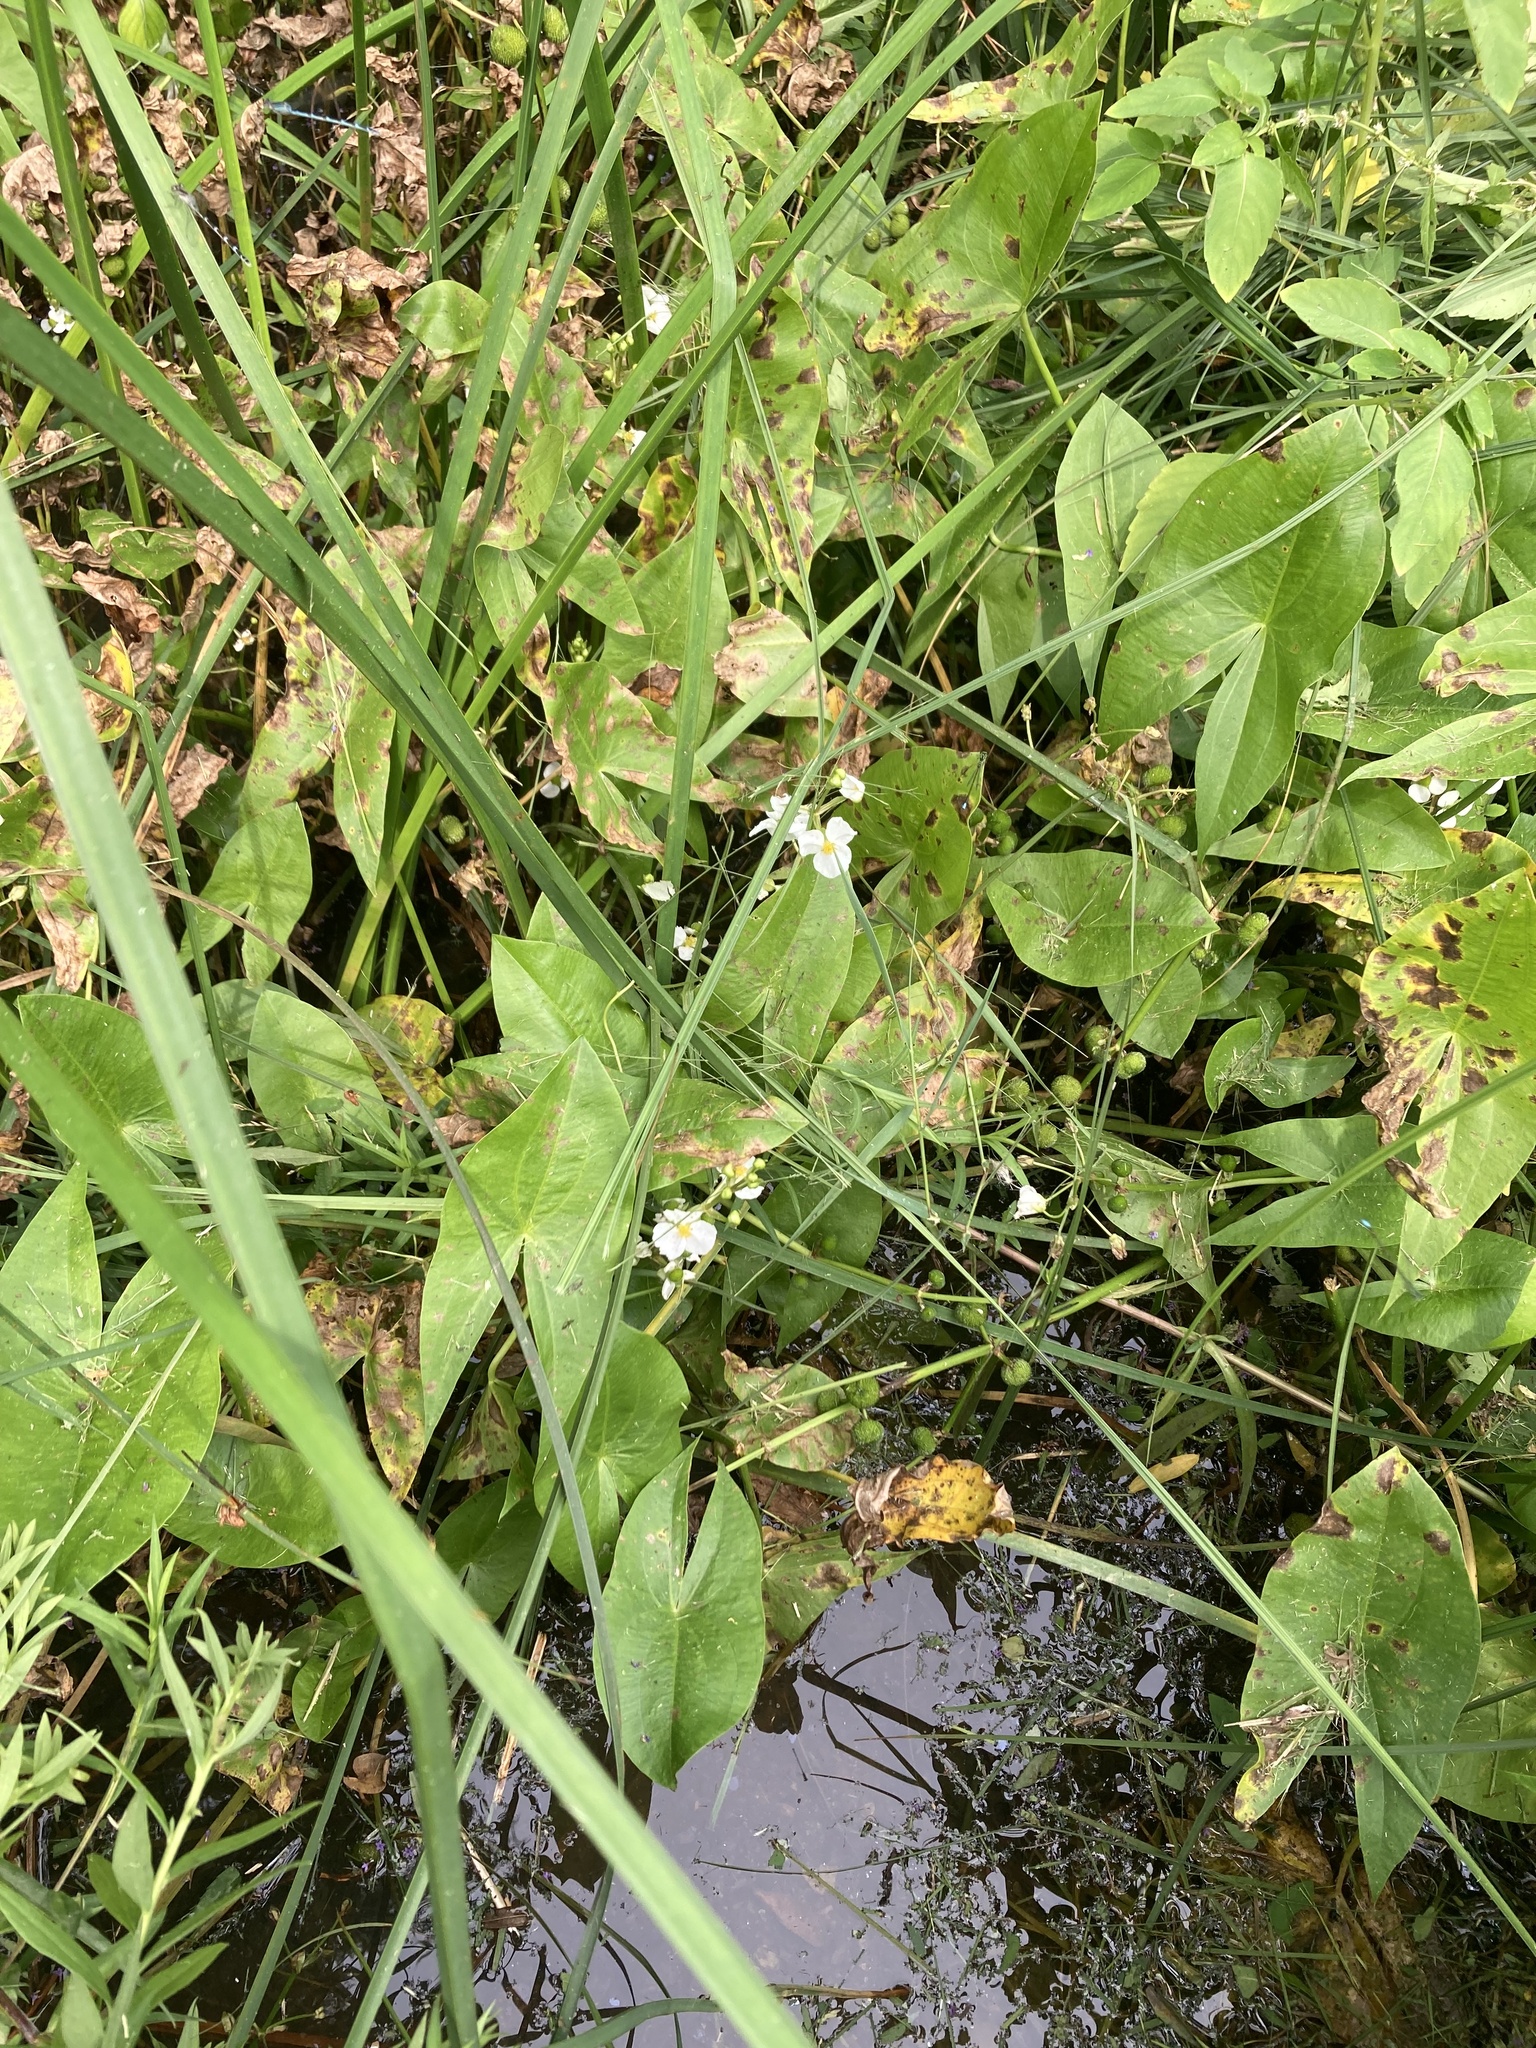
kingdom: Plantae
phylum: Tracheophyta
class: Liliopsida
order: Alismatales
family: Alismataceae
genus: Sagittaria
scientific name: Sagittaria latifolia
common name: Duck-potato
